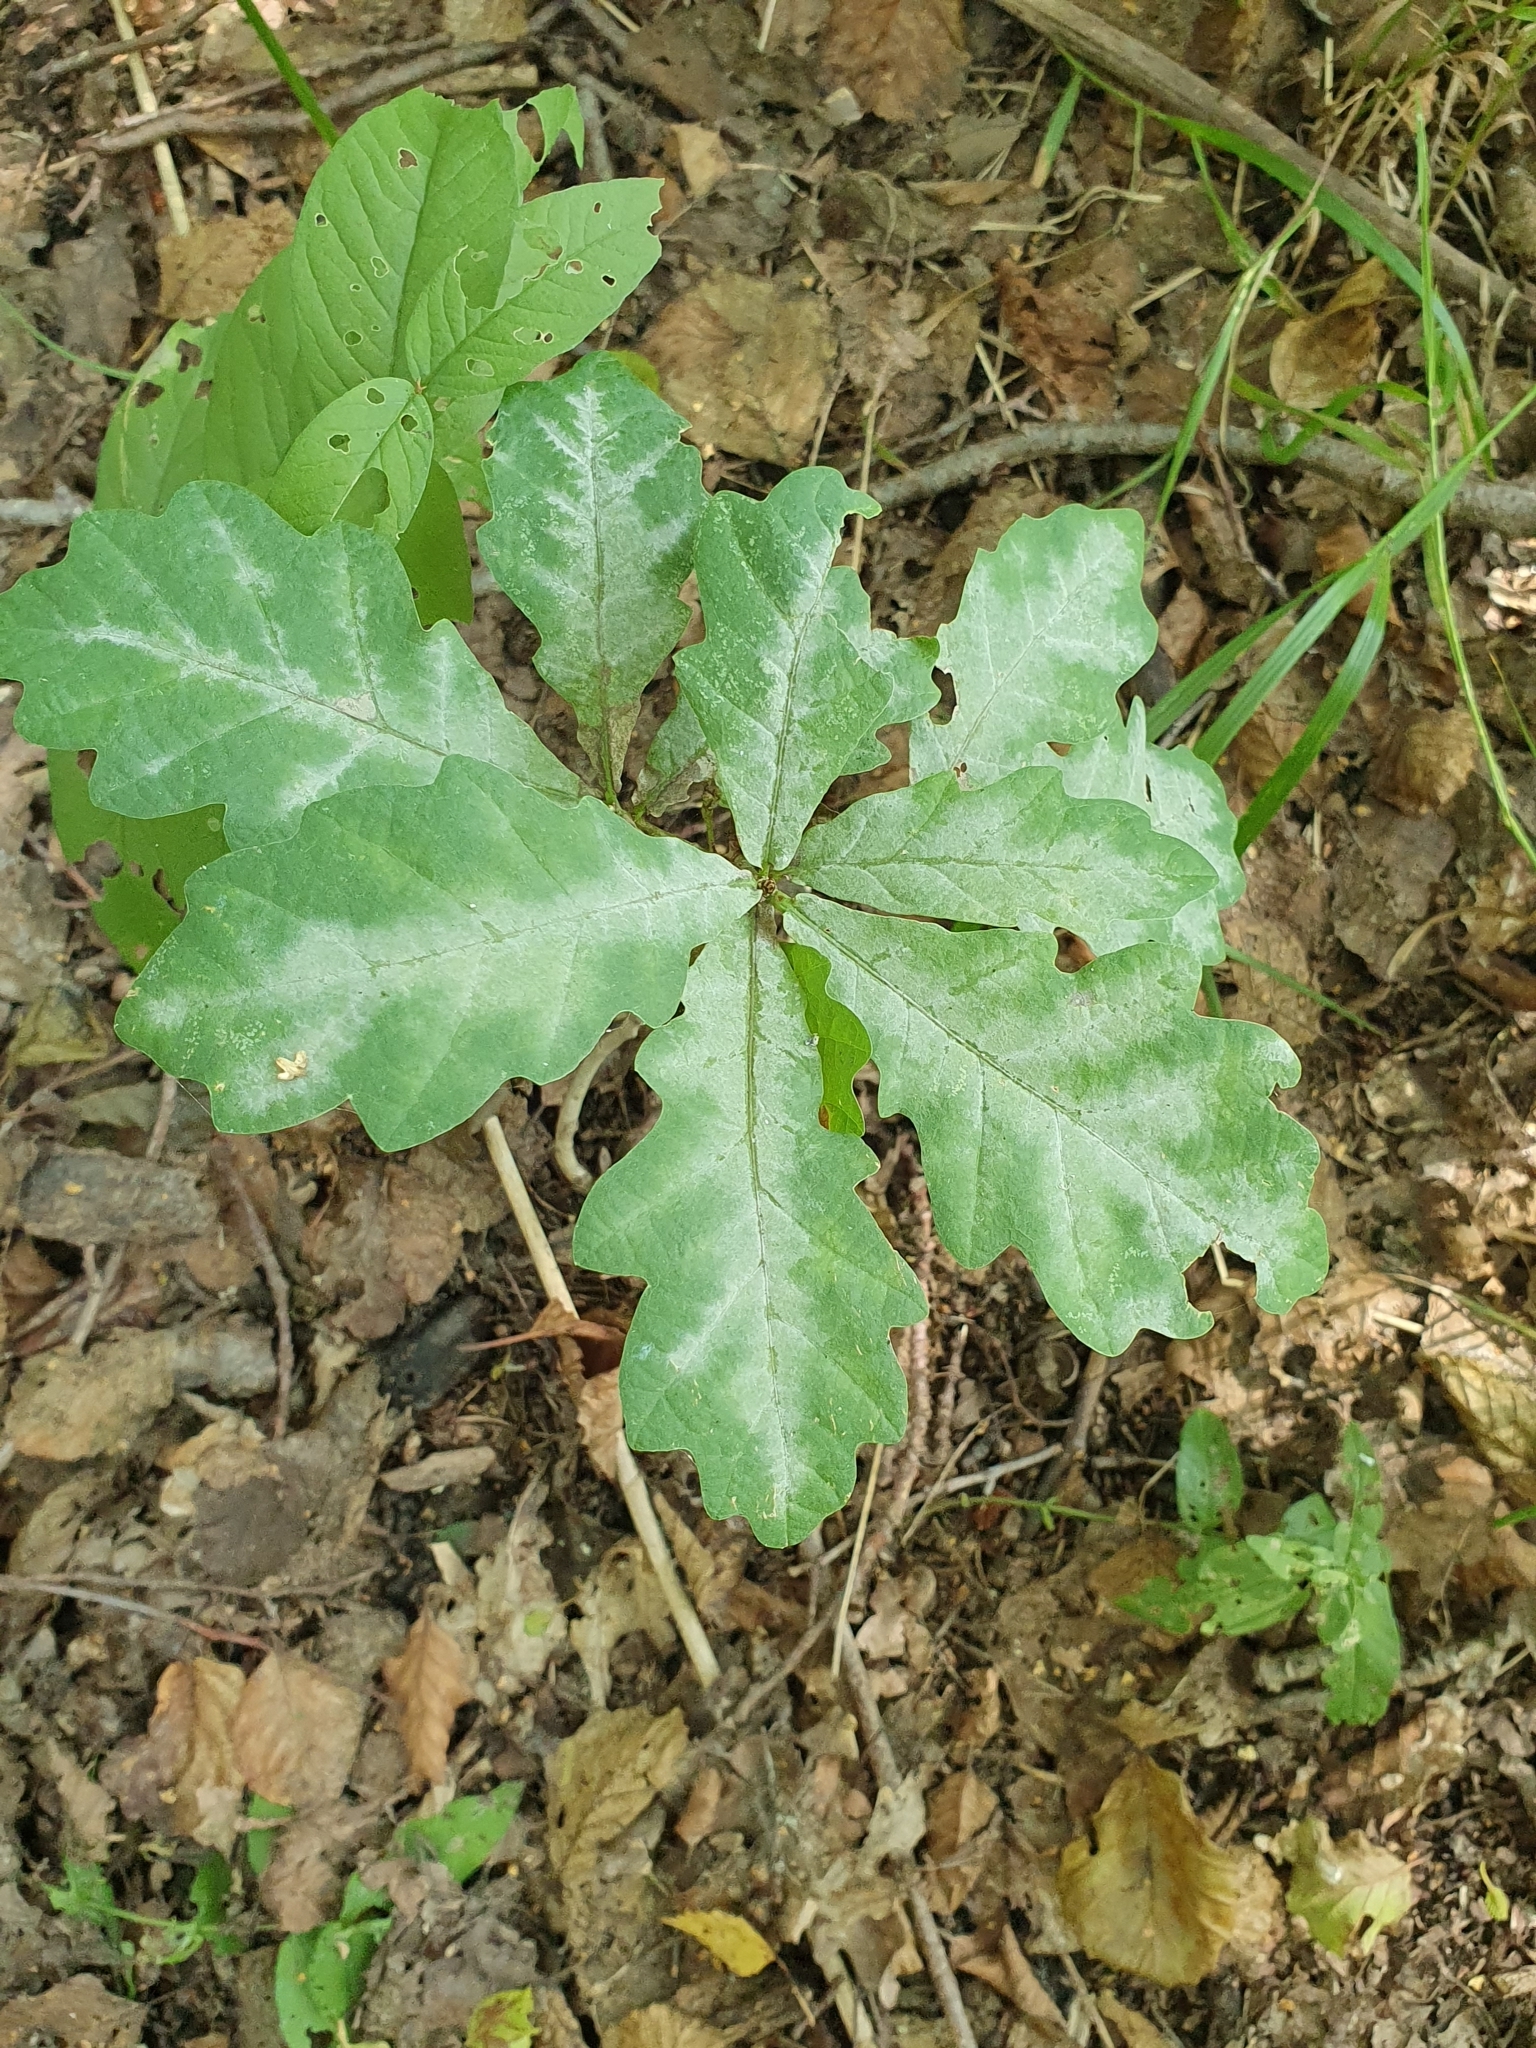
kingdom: Fungi
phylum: Ascomycota
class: Leotiomycetes
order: Helotiales
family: Erysiphaceae
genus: Erysiphe
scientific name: Erysiphe alphitoides
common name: Oak mildew
